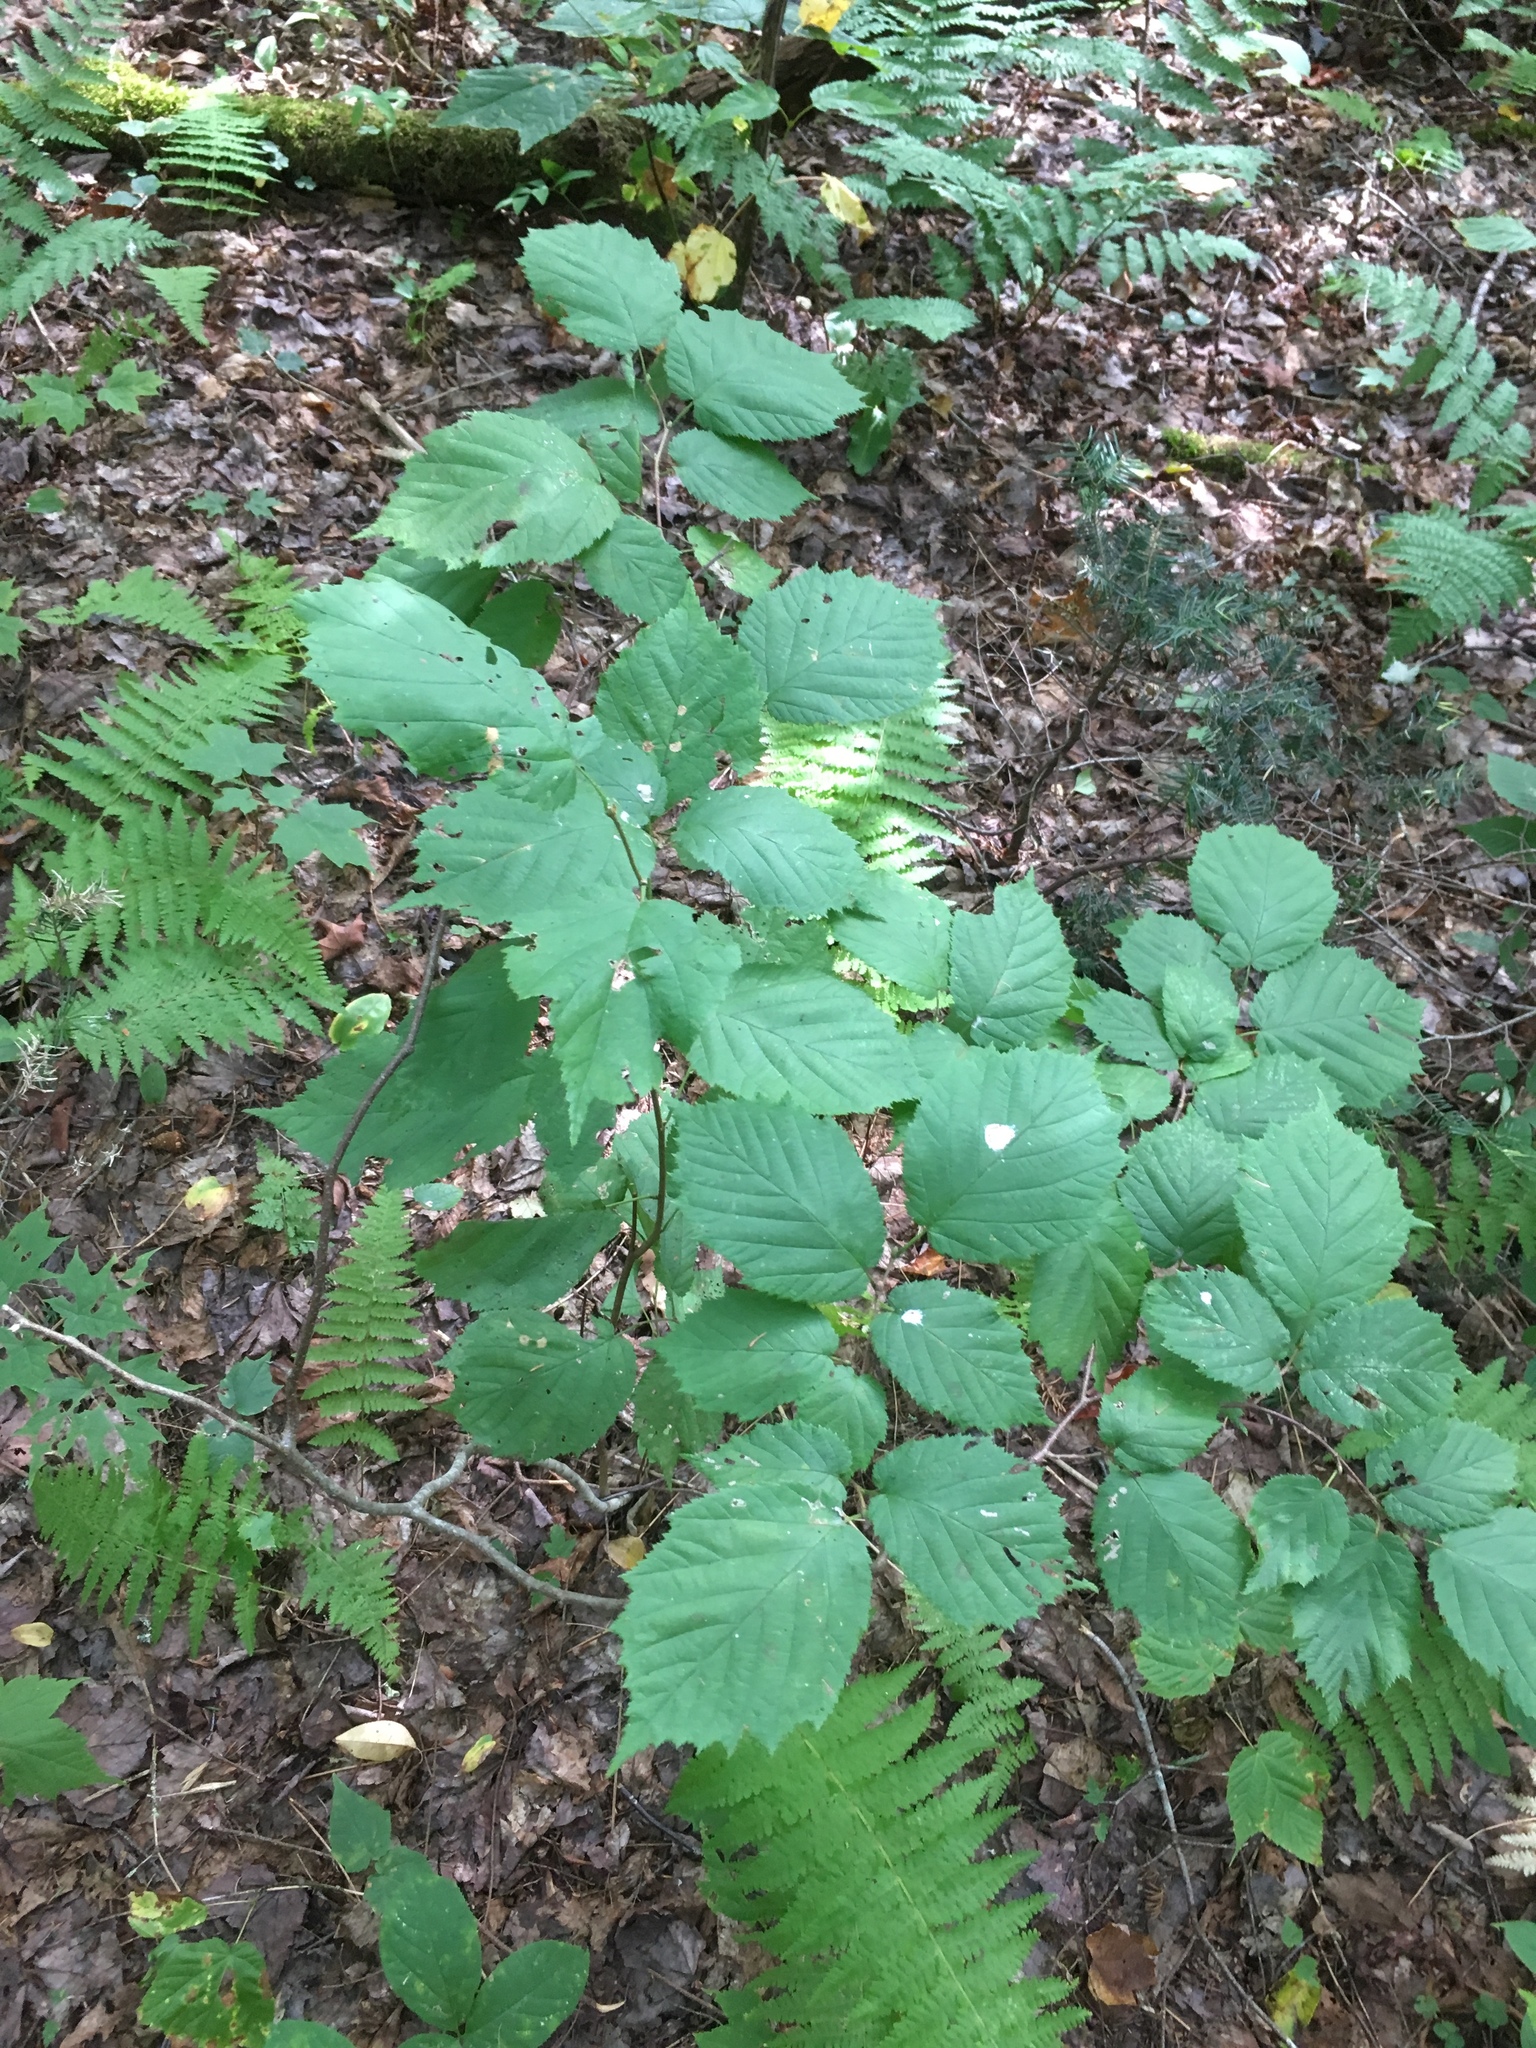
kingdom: Plantae
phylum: Tracheophyta
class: Magnoliopsida
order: Fagales
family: Betulaceae
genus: Corylus
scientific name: Corylus cornuta
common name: Beaked hazel
